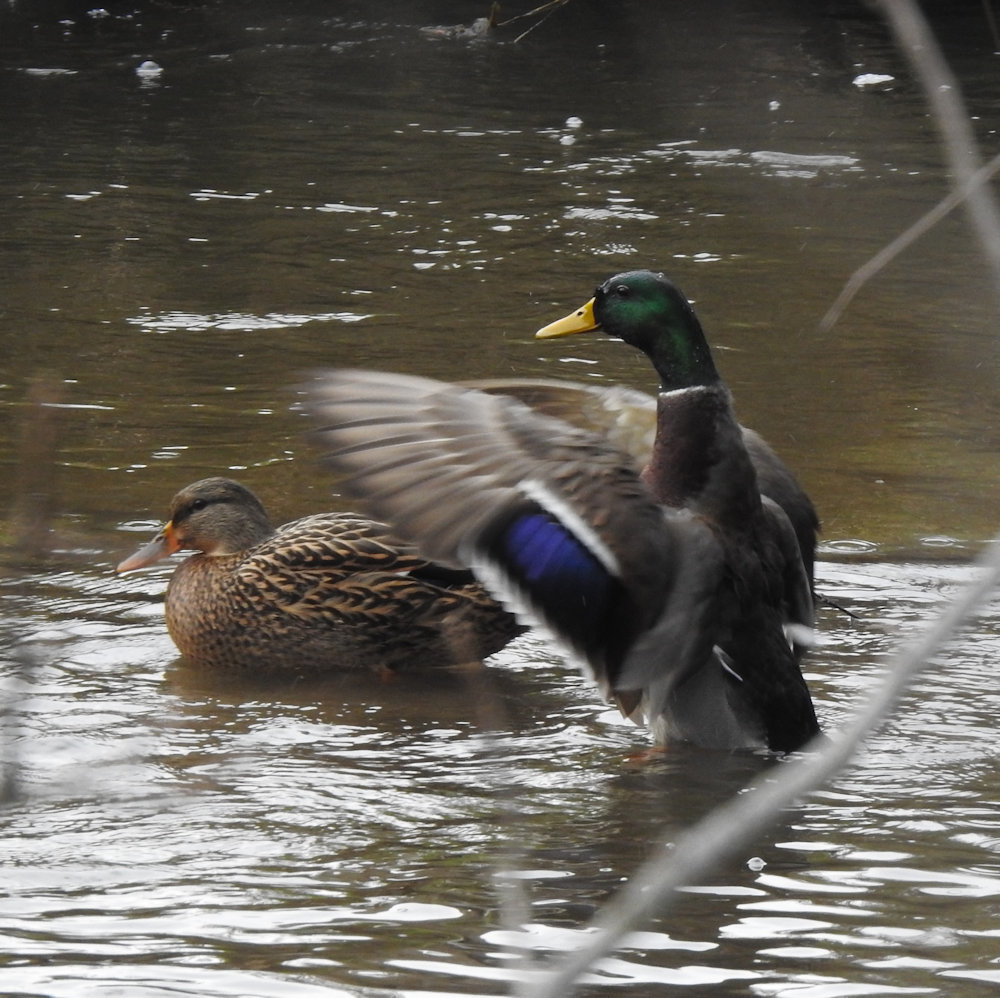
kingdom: Animalia
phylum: Chordata
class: Aves
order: Anseriformes
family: Anatidae
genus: Anas
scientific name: Anas platyrhynchos
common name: Mallard
